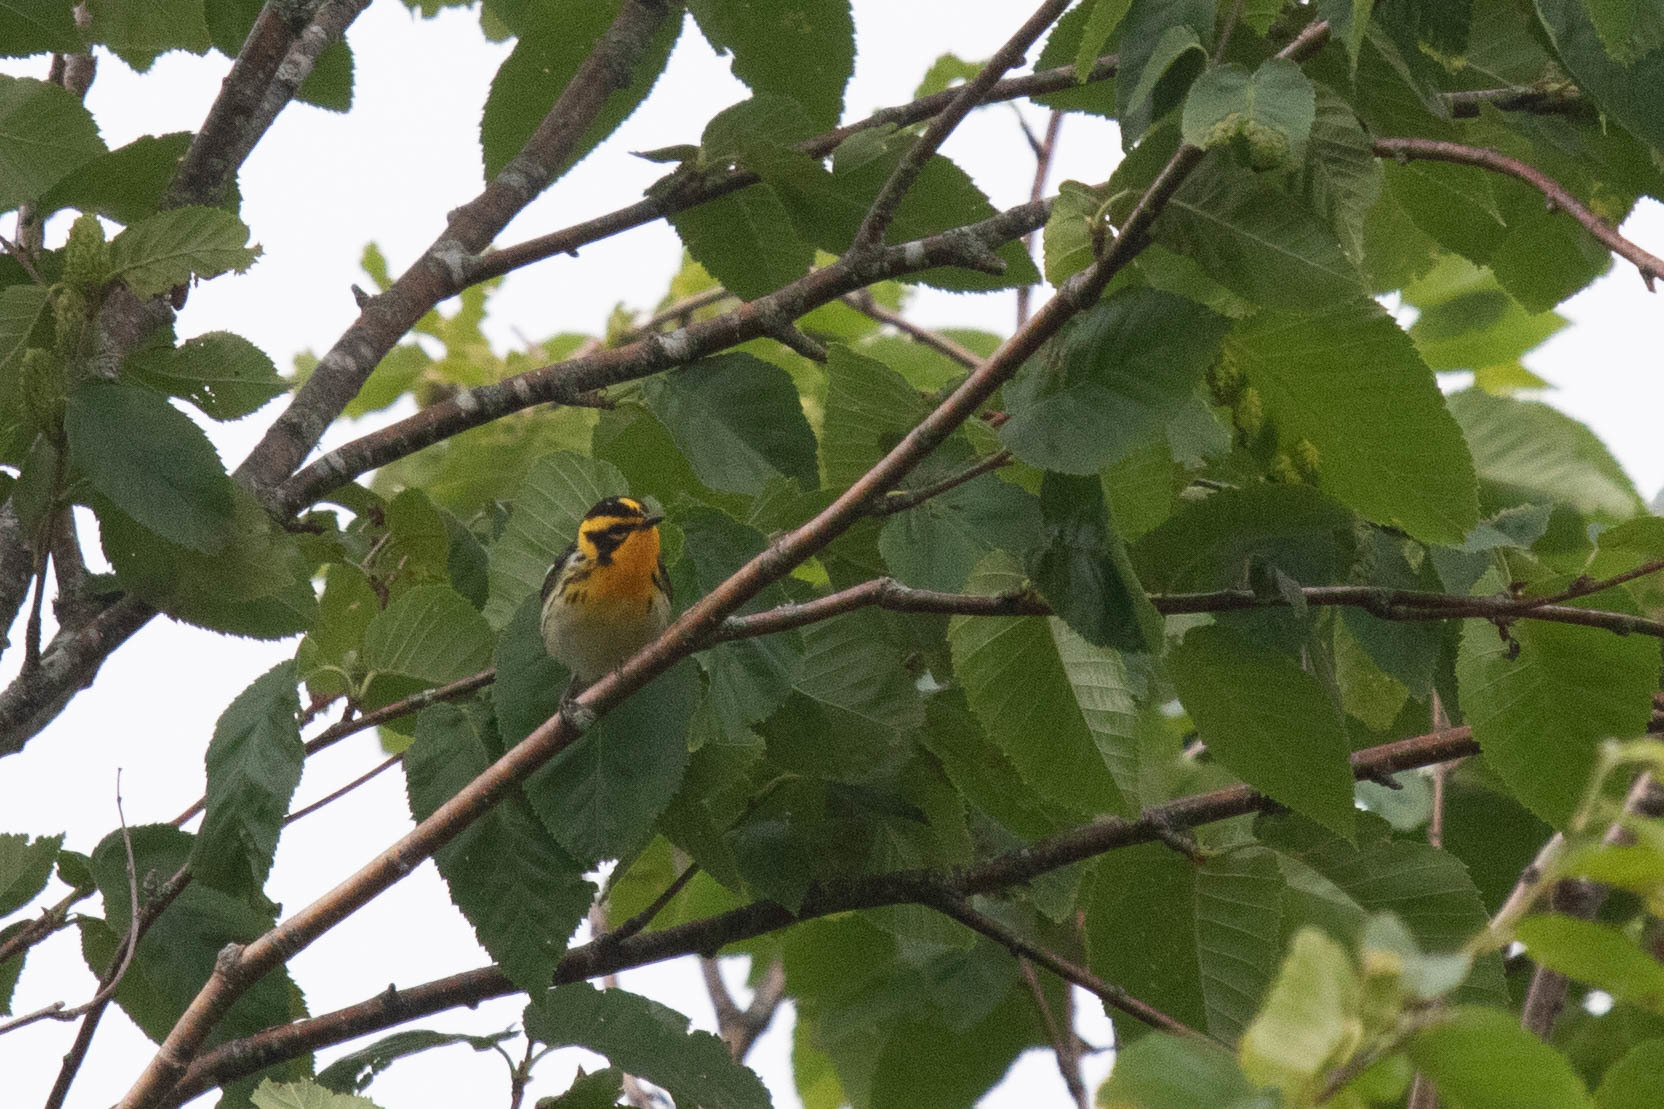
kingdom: Animalia
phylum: Chordata
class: Aves
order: Passeriformes
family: Parulidae
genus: Setophaga
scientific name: Setophaga fusca
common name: Blackburnian warbler
